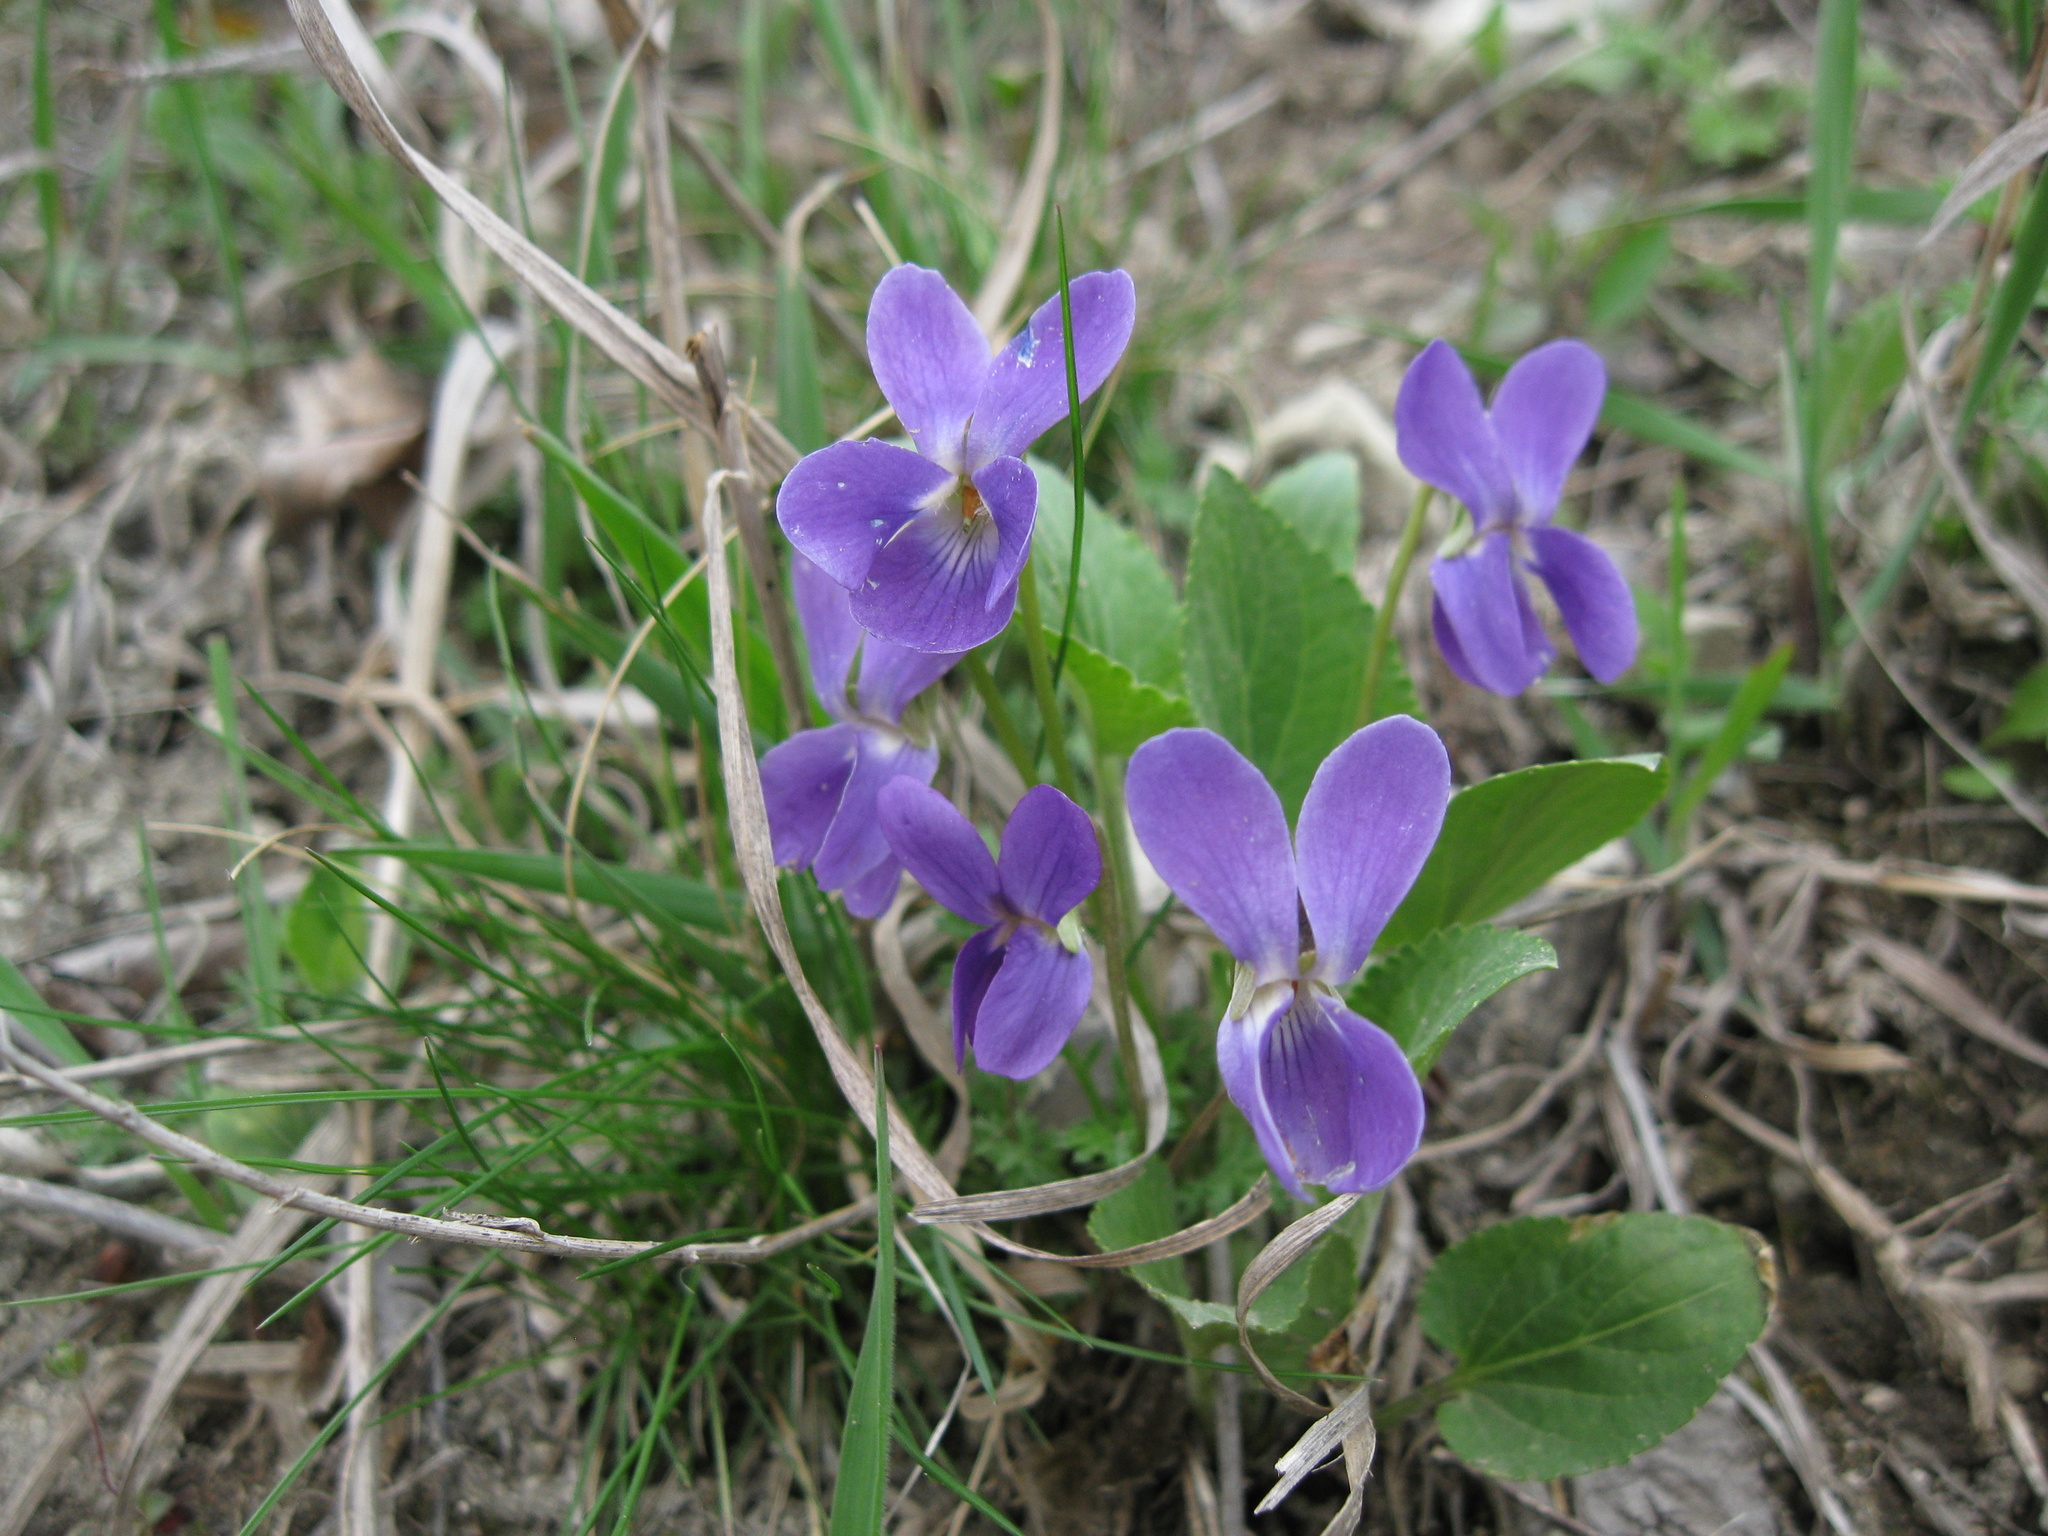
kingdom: Plantae
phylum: Tracheophyta
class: Magnoliopsida
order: Malpighiales
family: Violaceae
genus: Viola
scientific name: Viola ambigua
